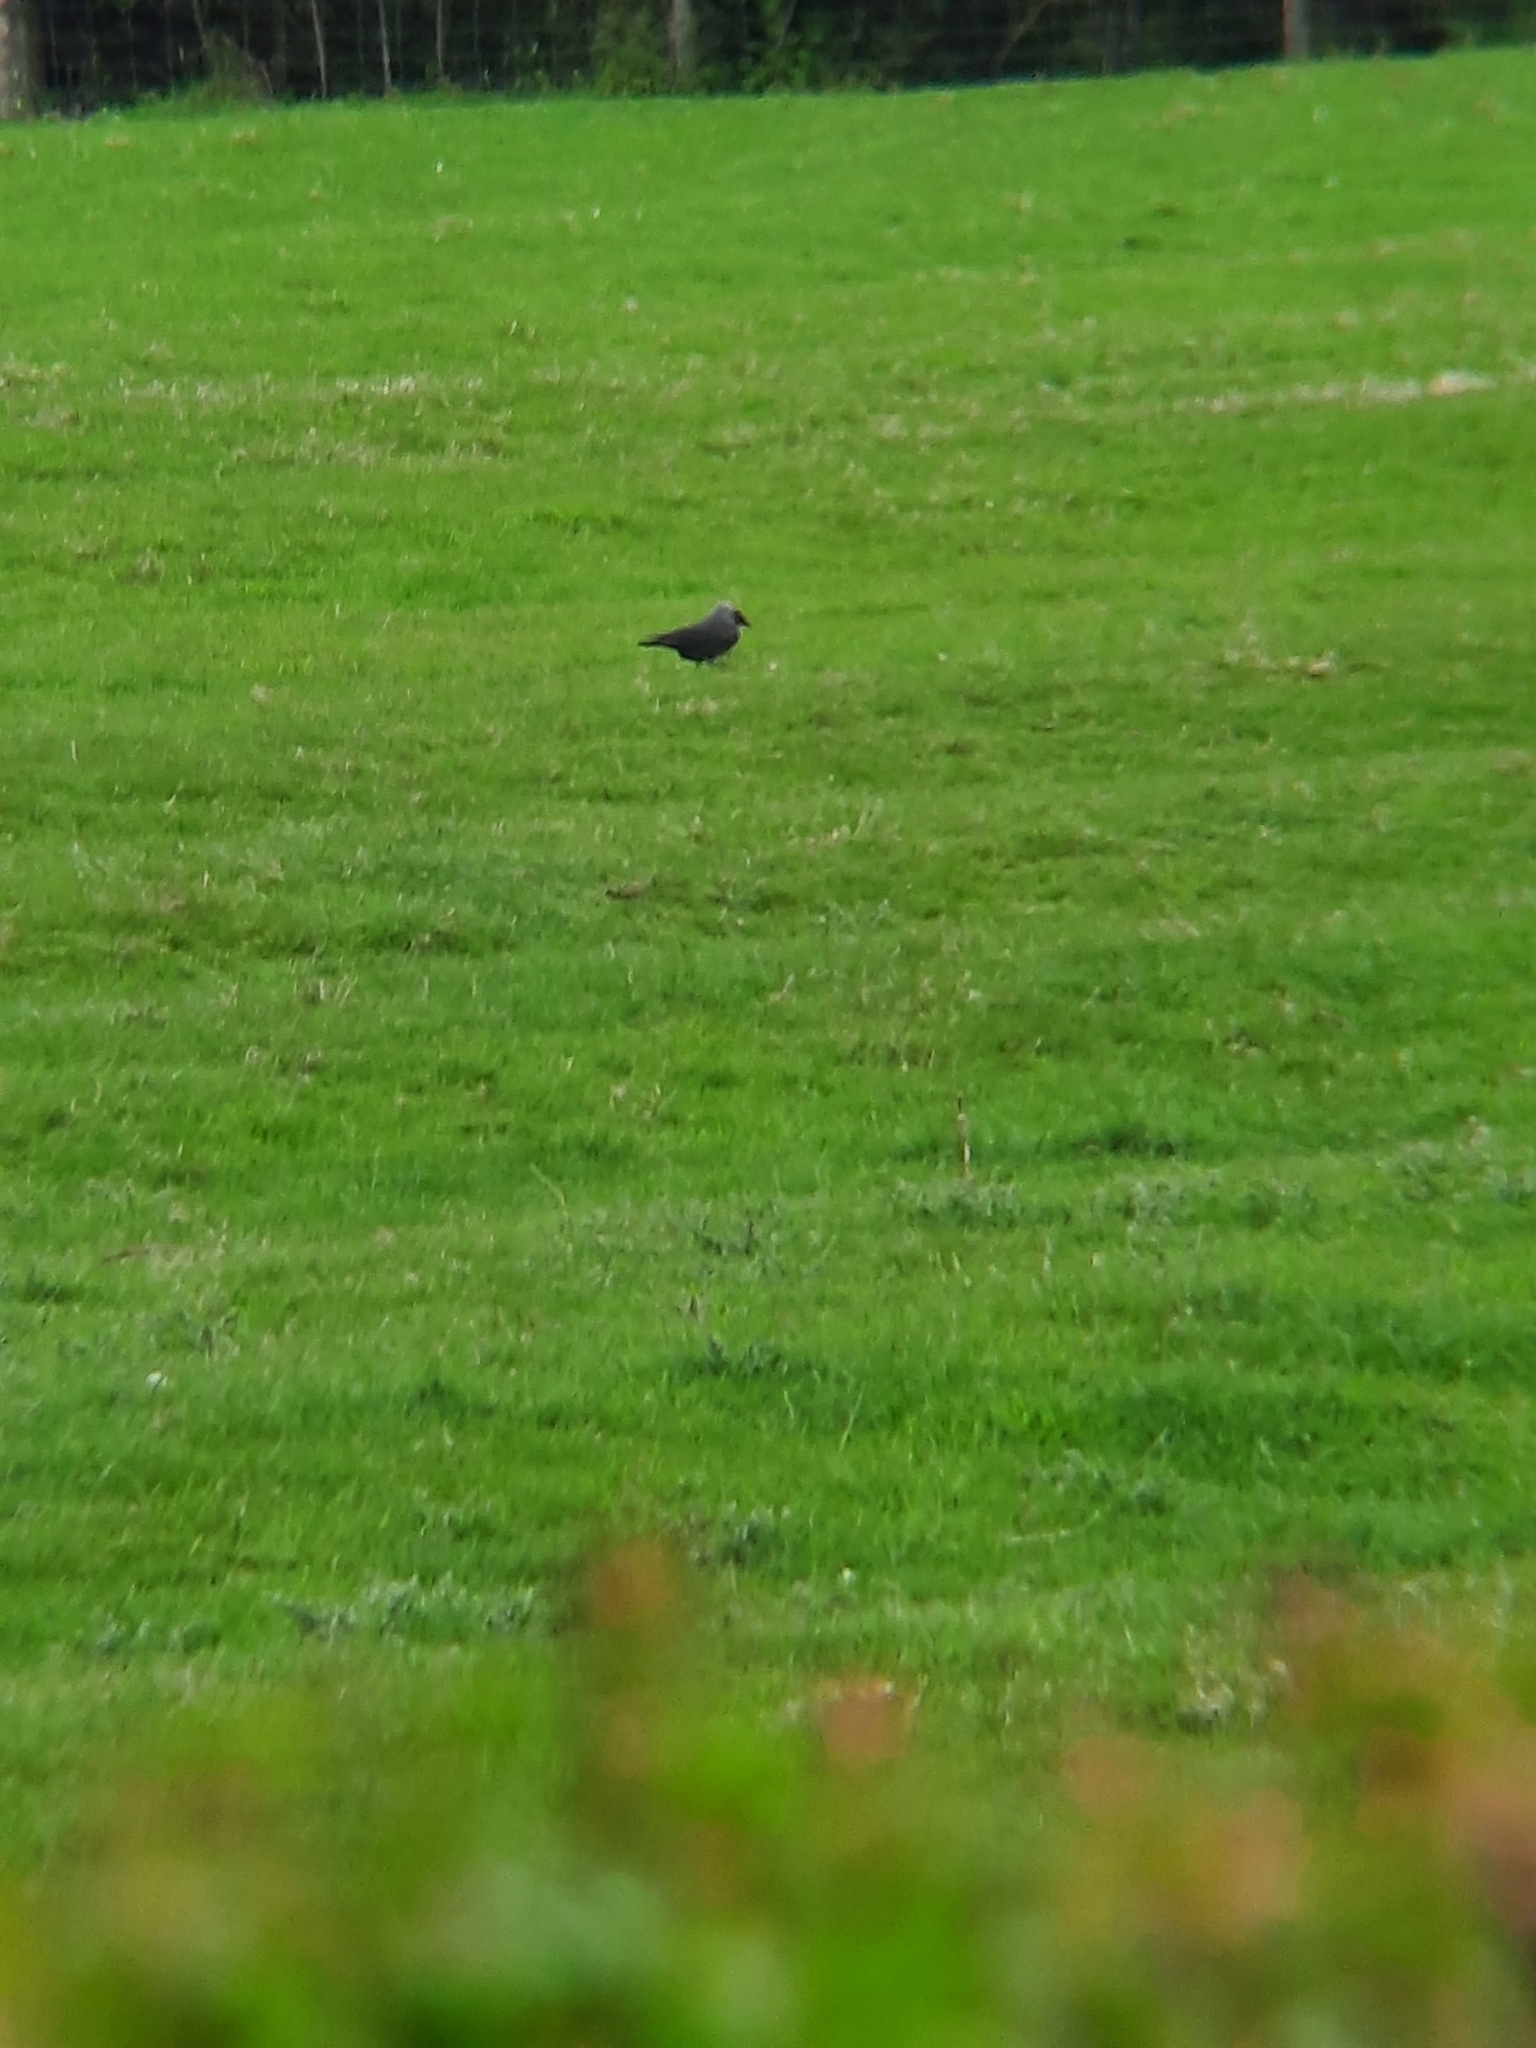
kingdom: Animalia
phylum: Chordata
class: Aves
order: Passeriformes
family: Corvidae
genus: Coloeus
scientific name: Coloeus monedula
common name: Western jackdaw
